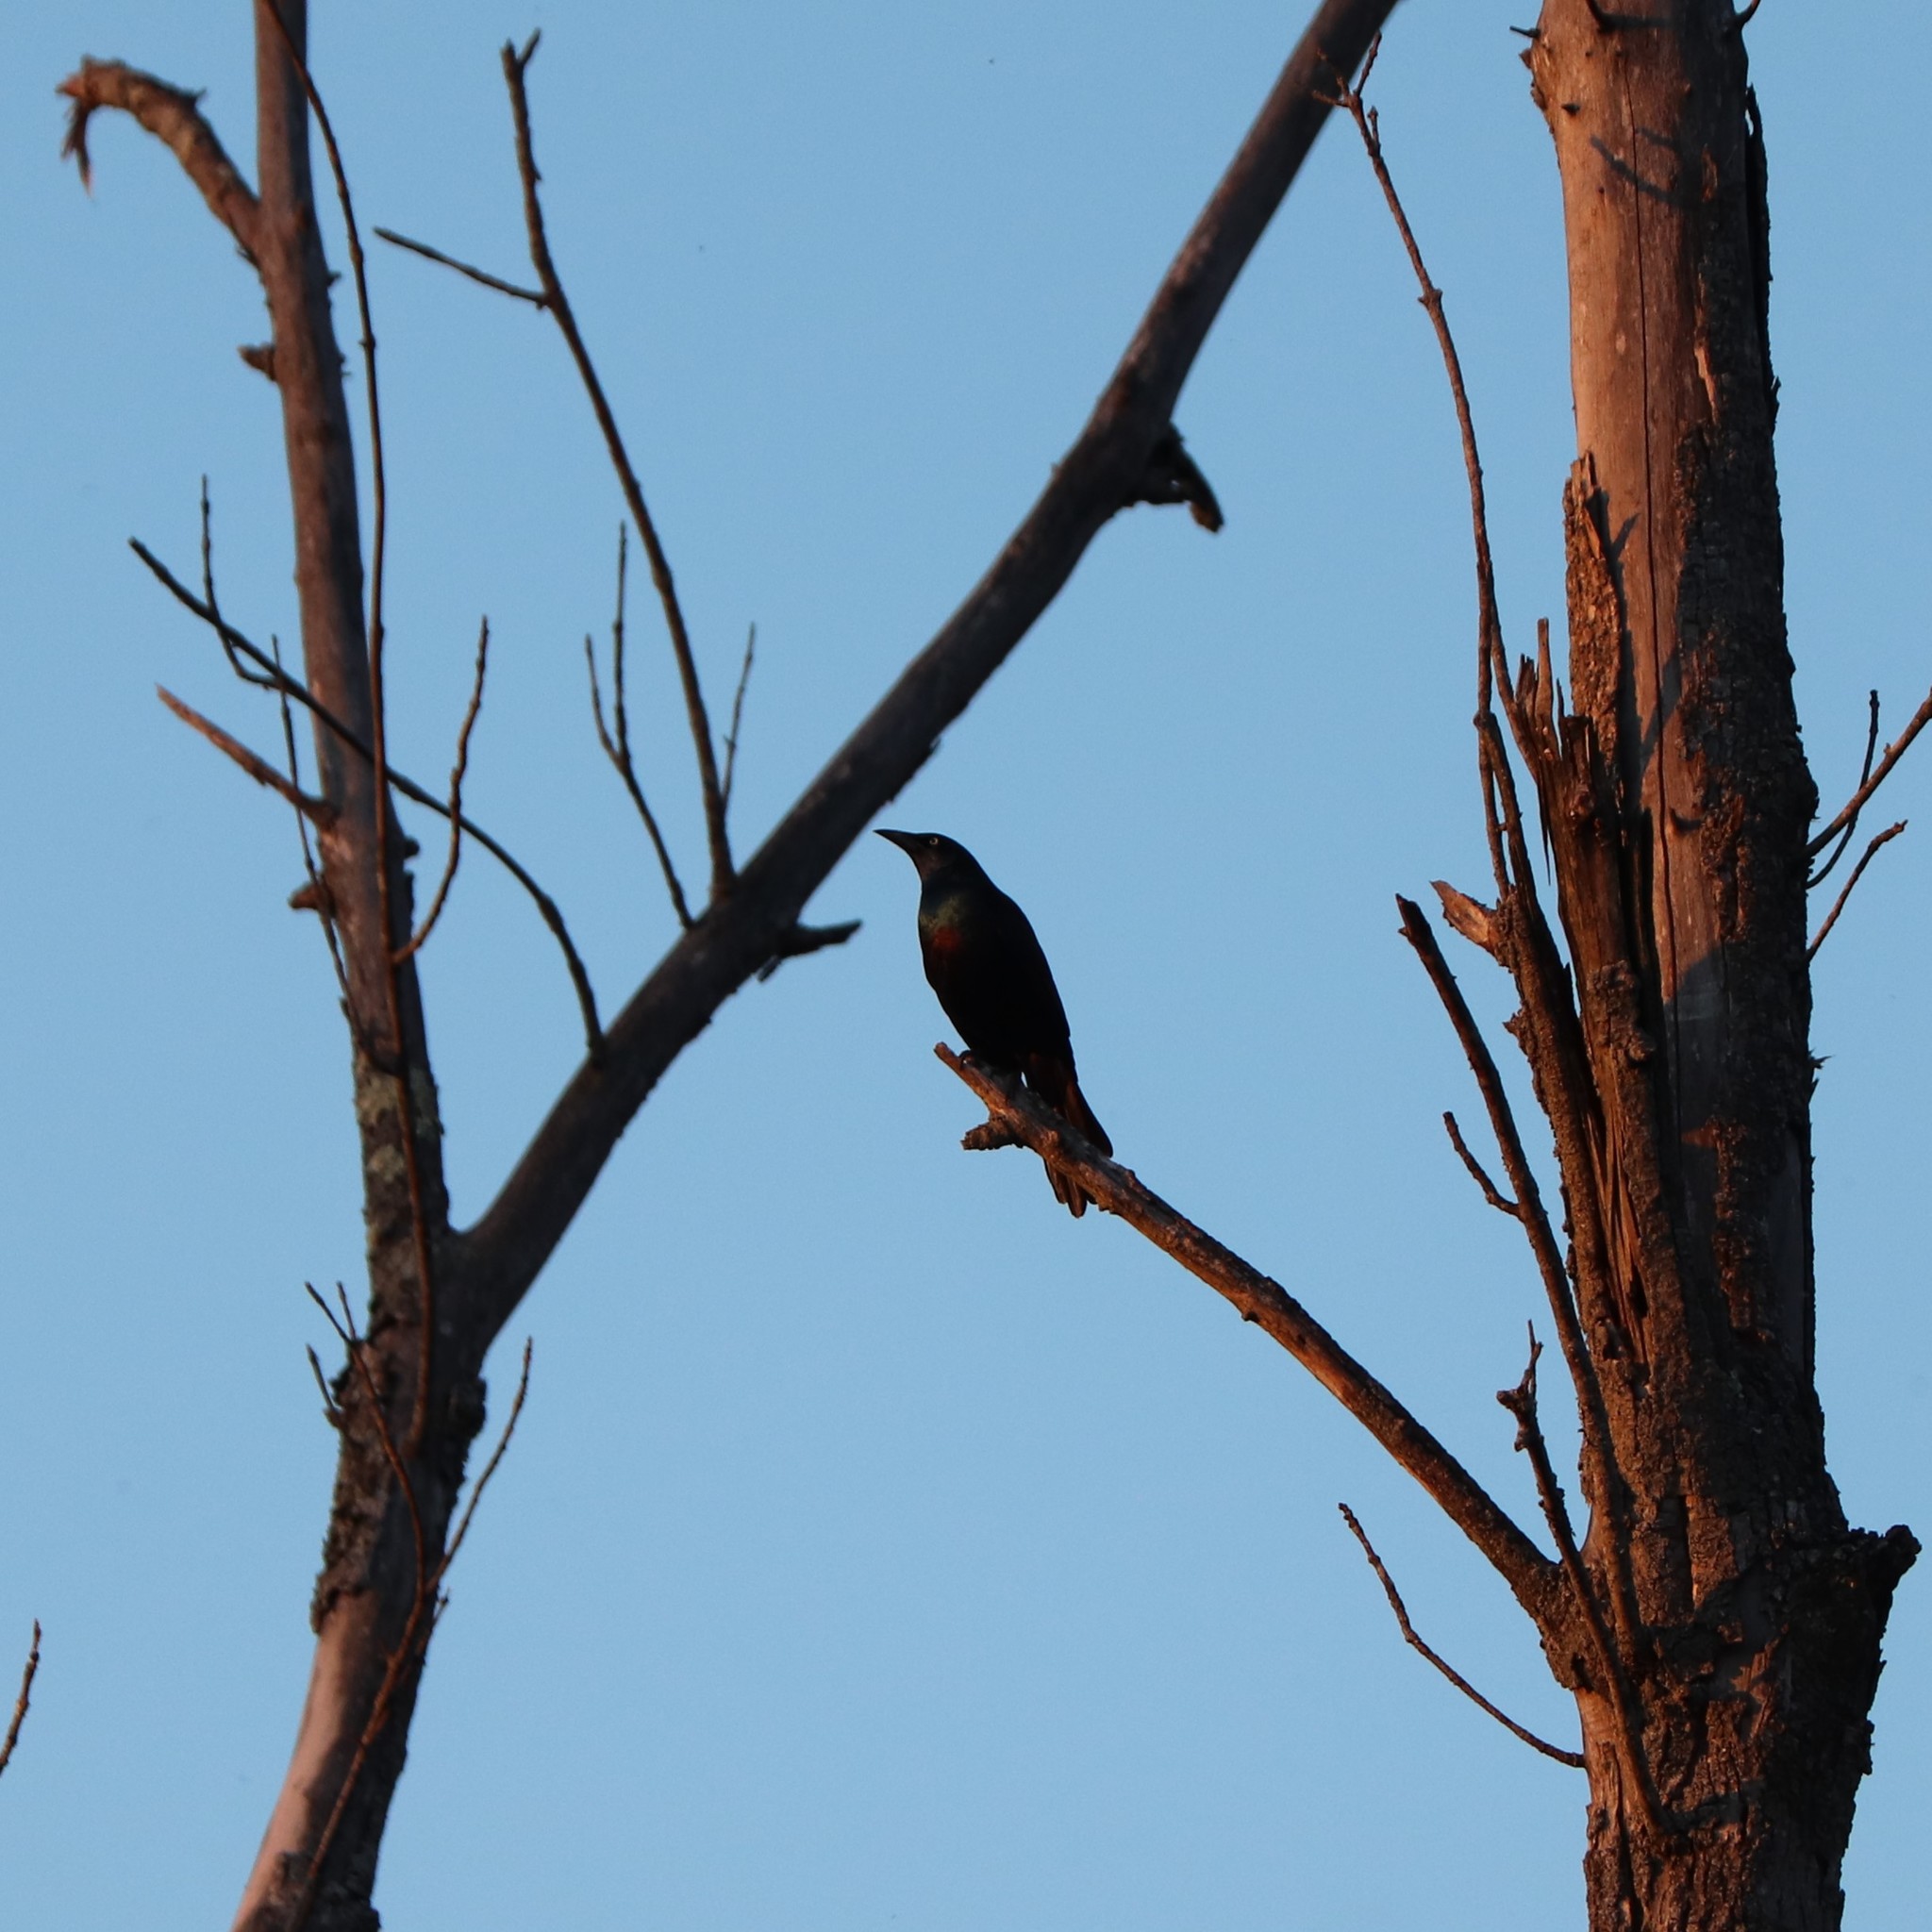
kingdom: Animalia
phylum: Chordata
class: Aves
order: Passeriformes
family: Icteridae
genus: Quiscalus
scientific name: Quiscalus quiscula
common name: Common grackle
